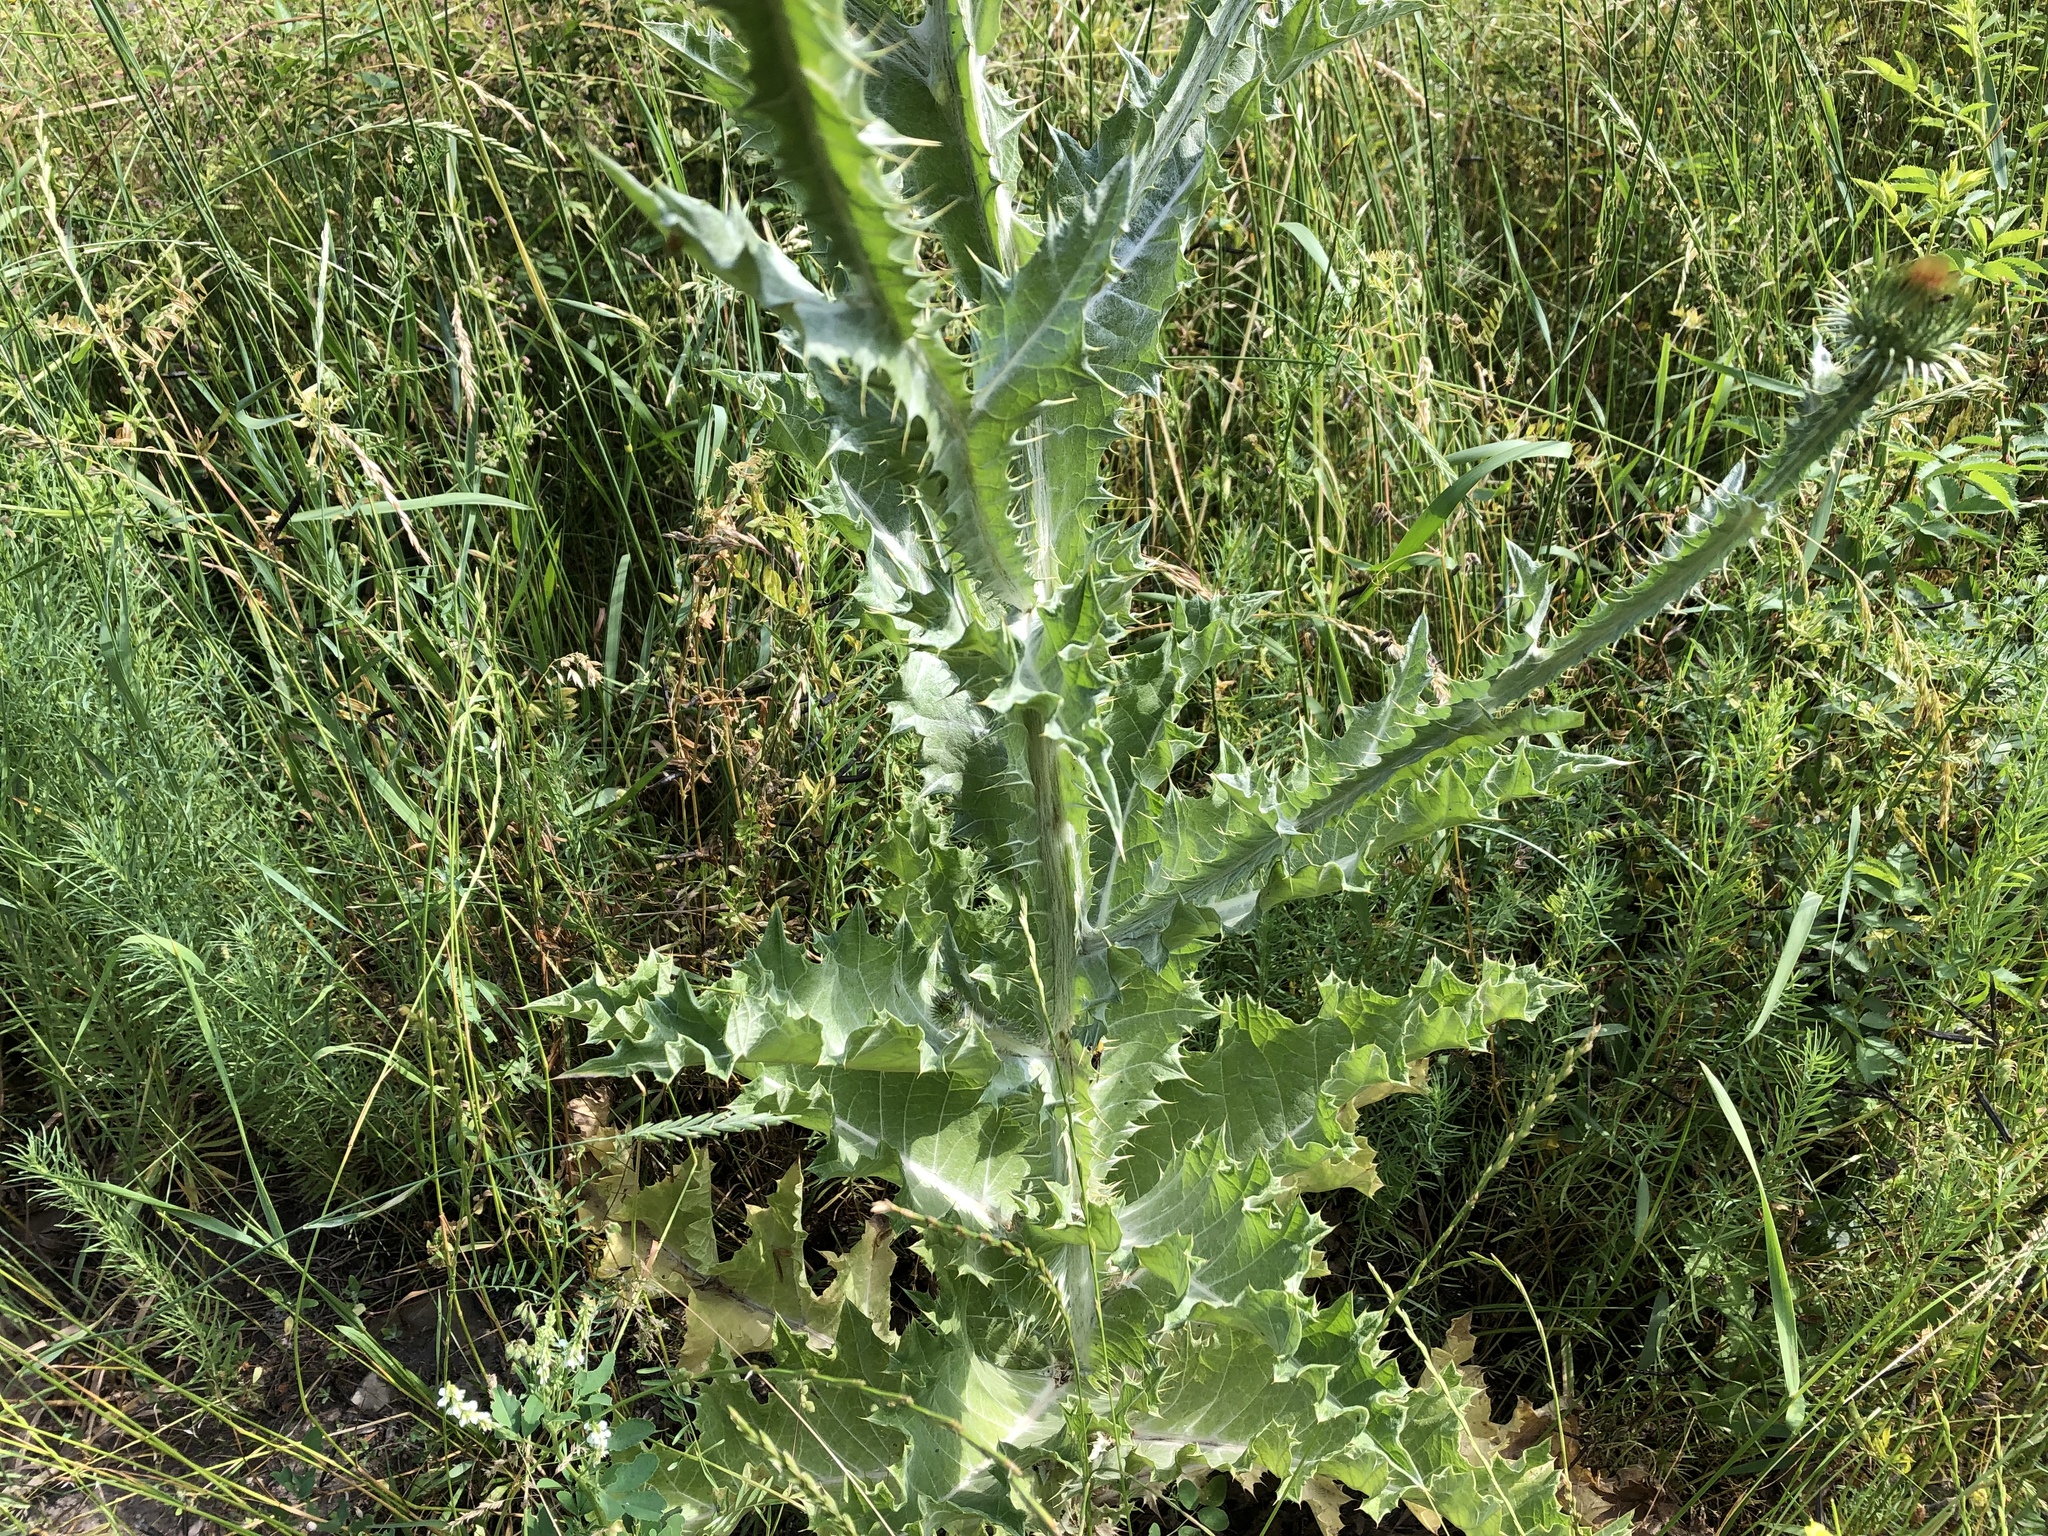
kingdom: Plantae
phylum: Tracheophyta
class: Magnoliopsida
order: Asterales
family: Asteraceae
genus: Onopordum
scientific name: Onopordum acanthium
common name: Scotch thistle
